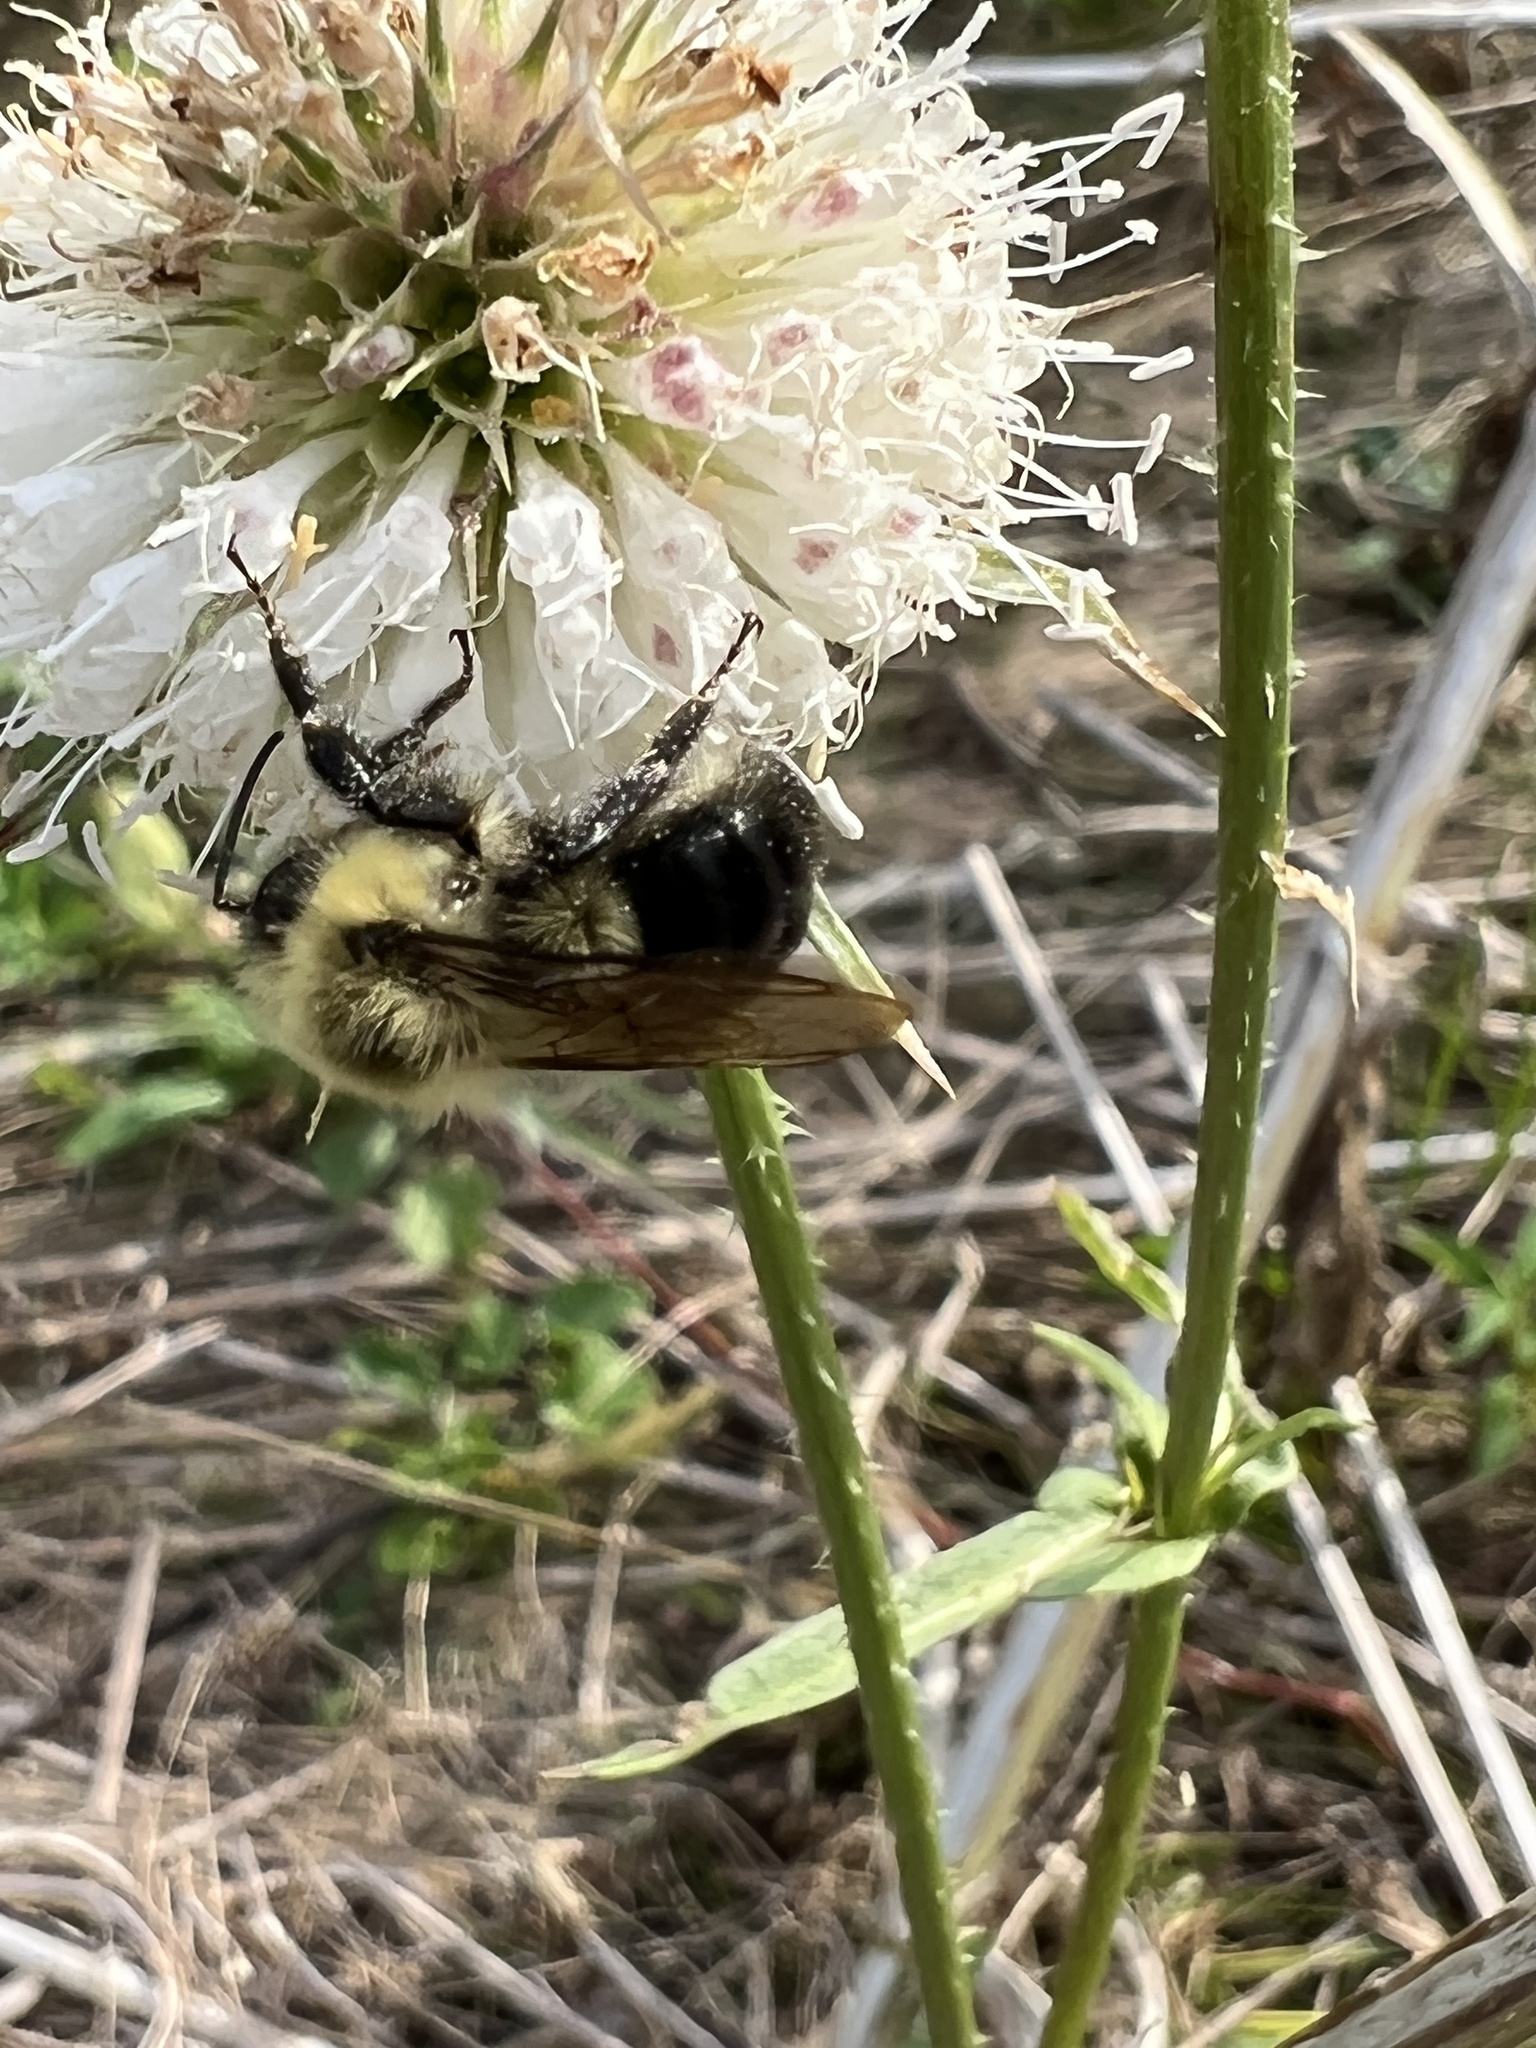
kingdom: Animalia
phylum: Arthropoda
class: Insecta
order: Hymenoptera
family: Apidae
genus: Bombus
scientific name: Bombus impatiens
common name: Common eastern bumble bee
